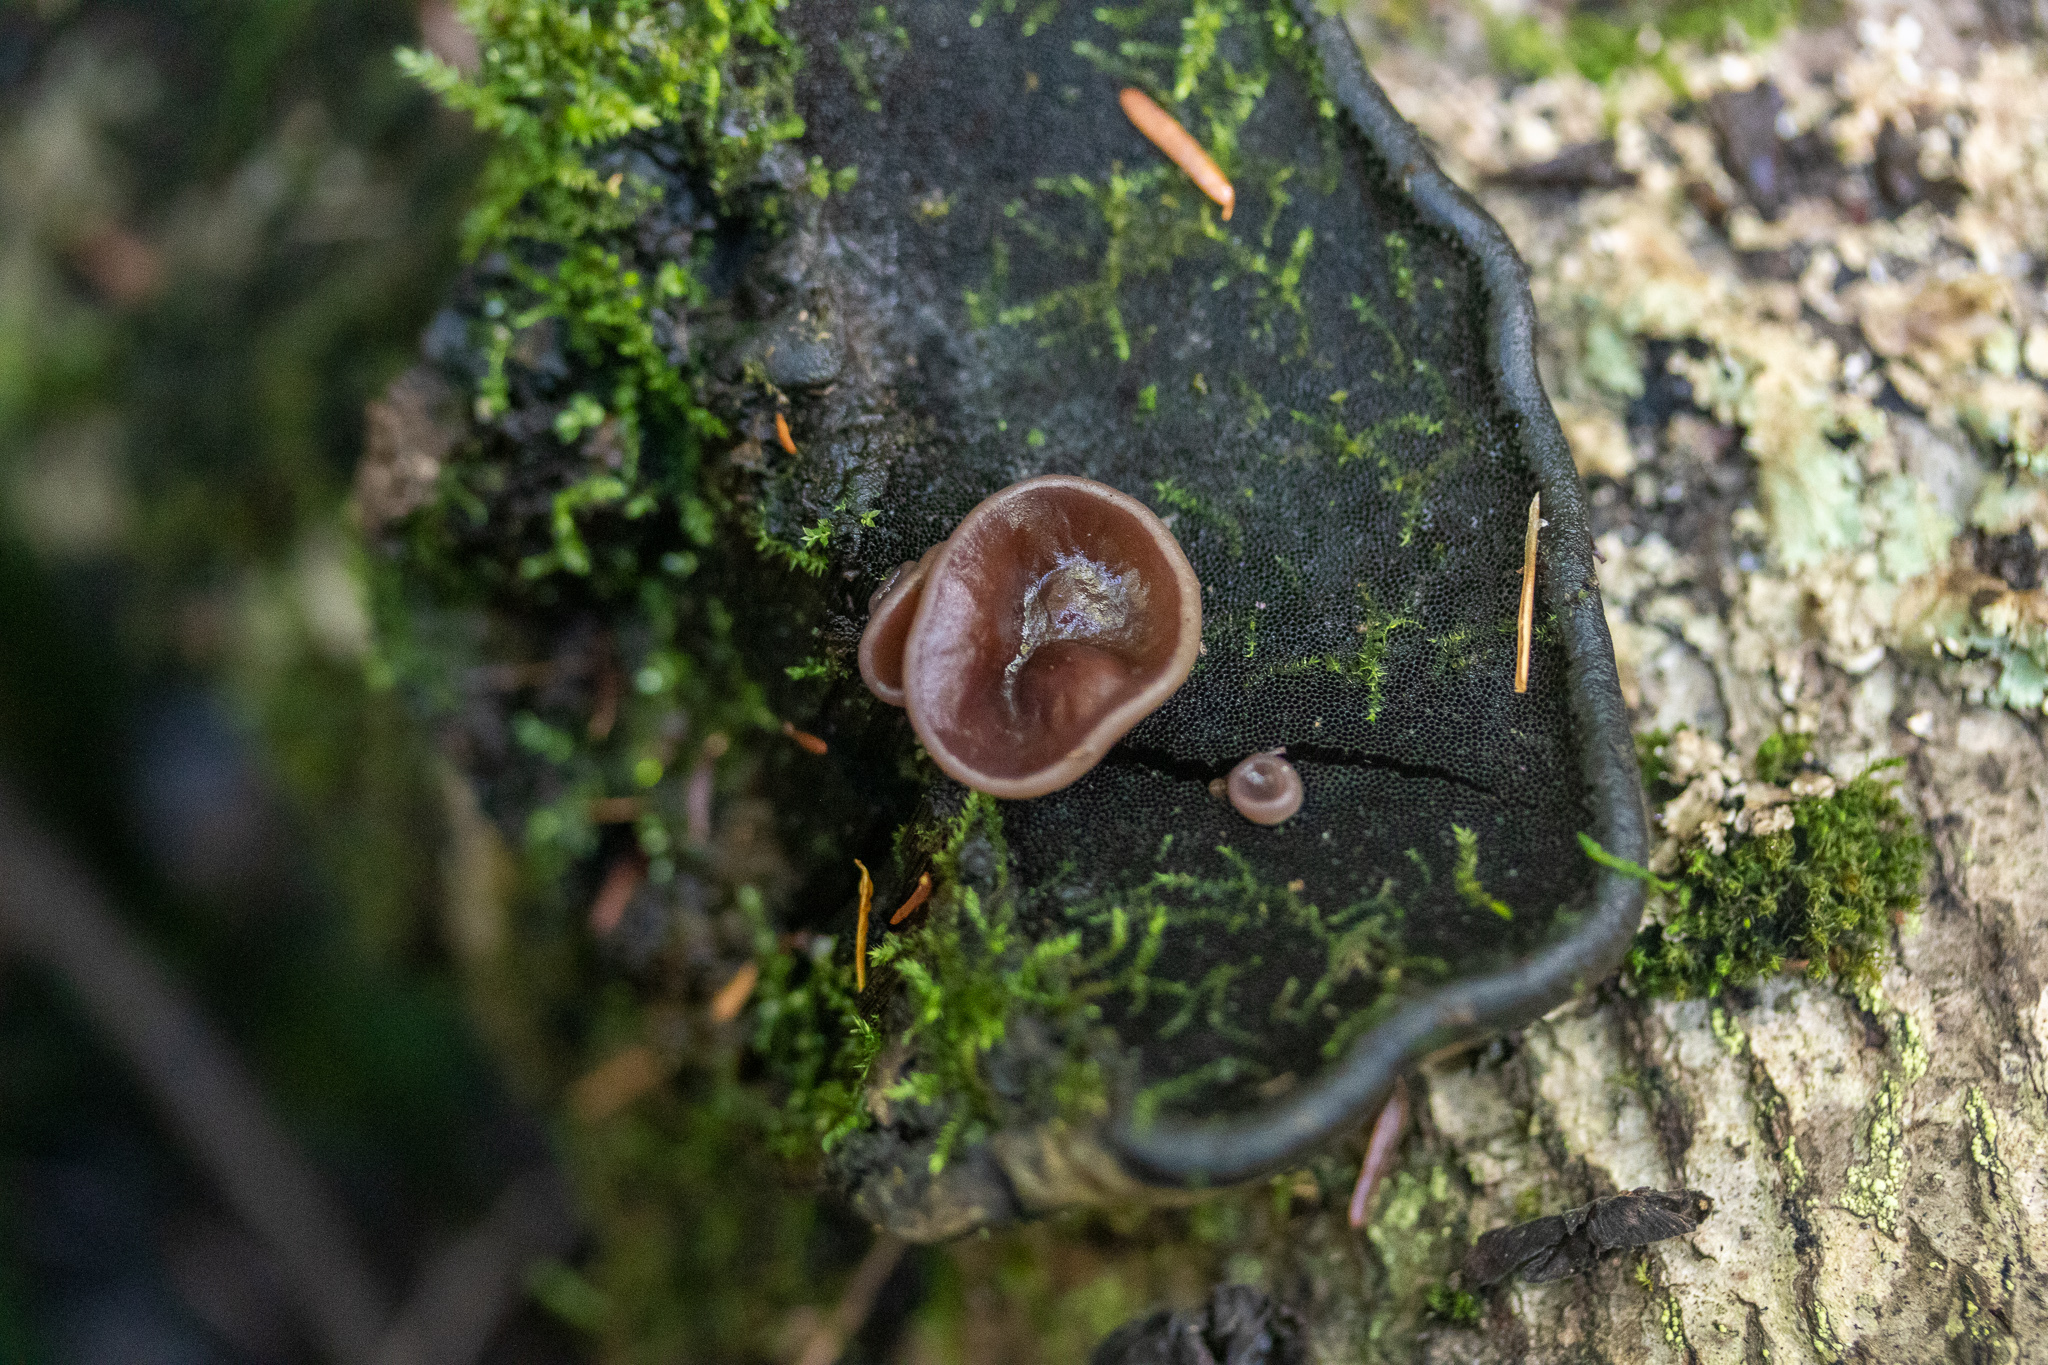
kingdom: Fungi
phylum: Ascomycota
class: Pezizomycetes
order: Pezizales
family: Pezizaceae
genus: Pachyella
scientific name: Pachyella clypeata
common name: Copper penny fungus
